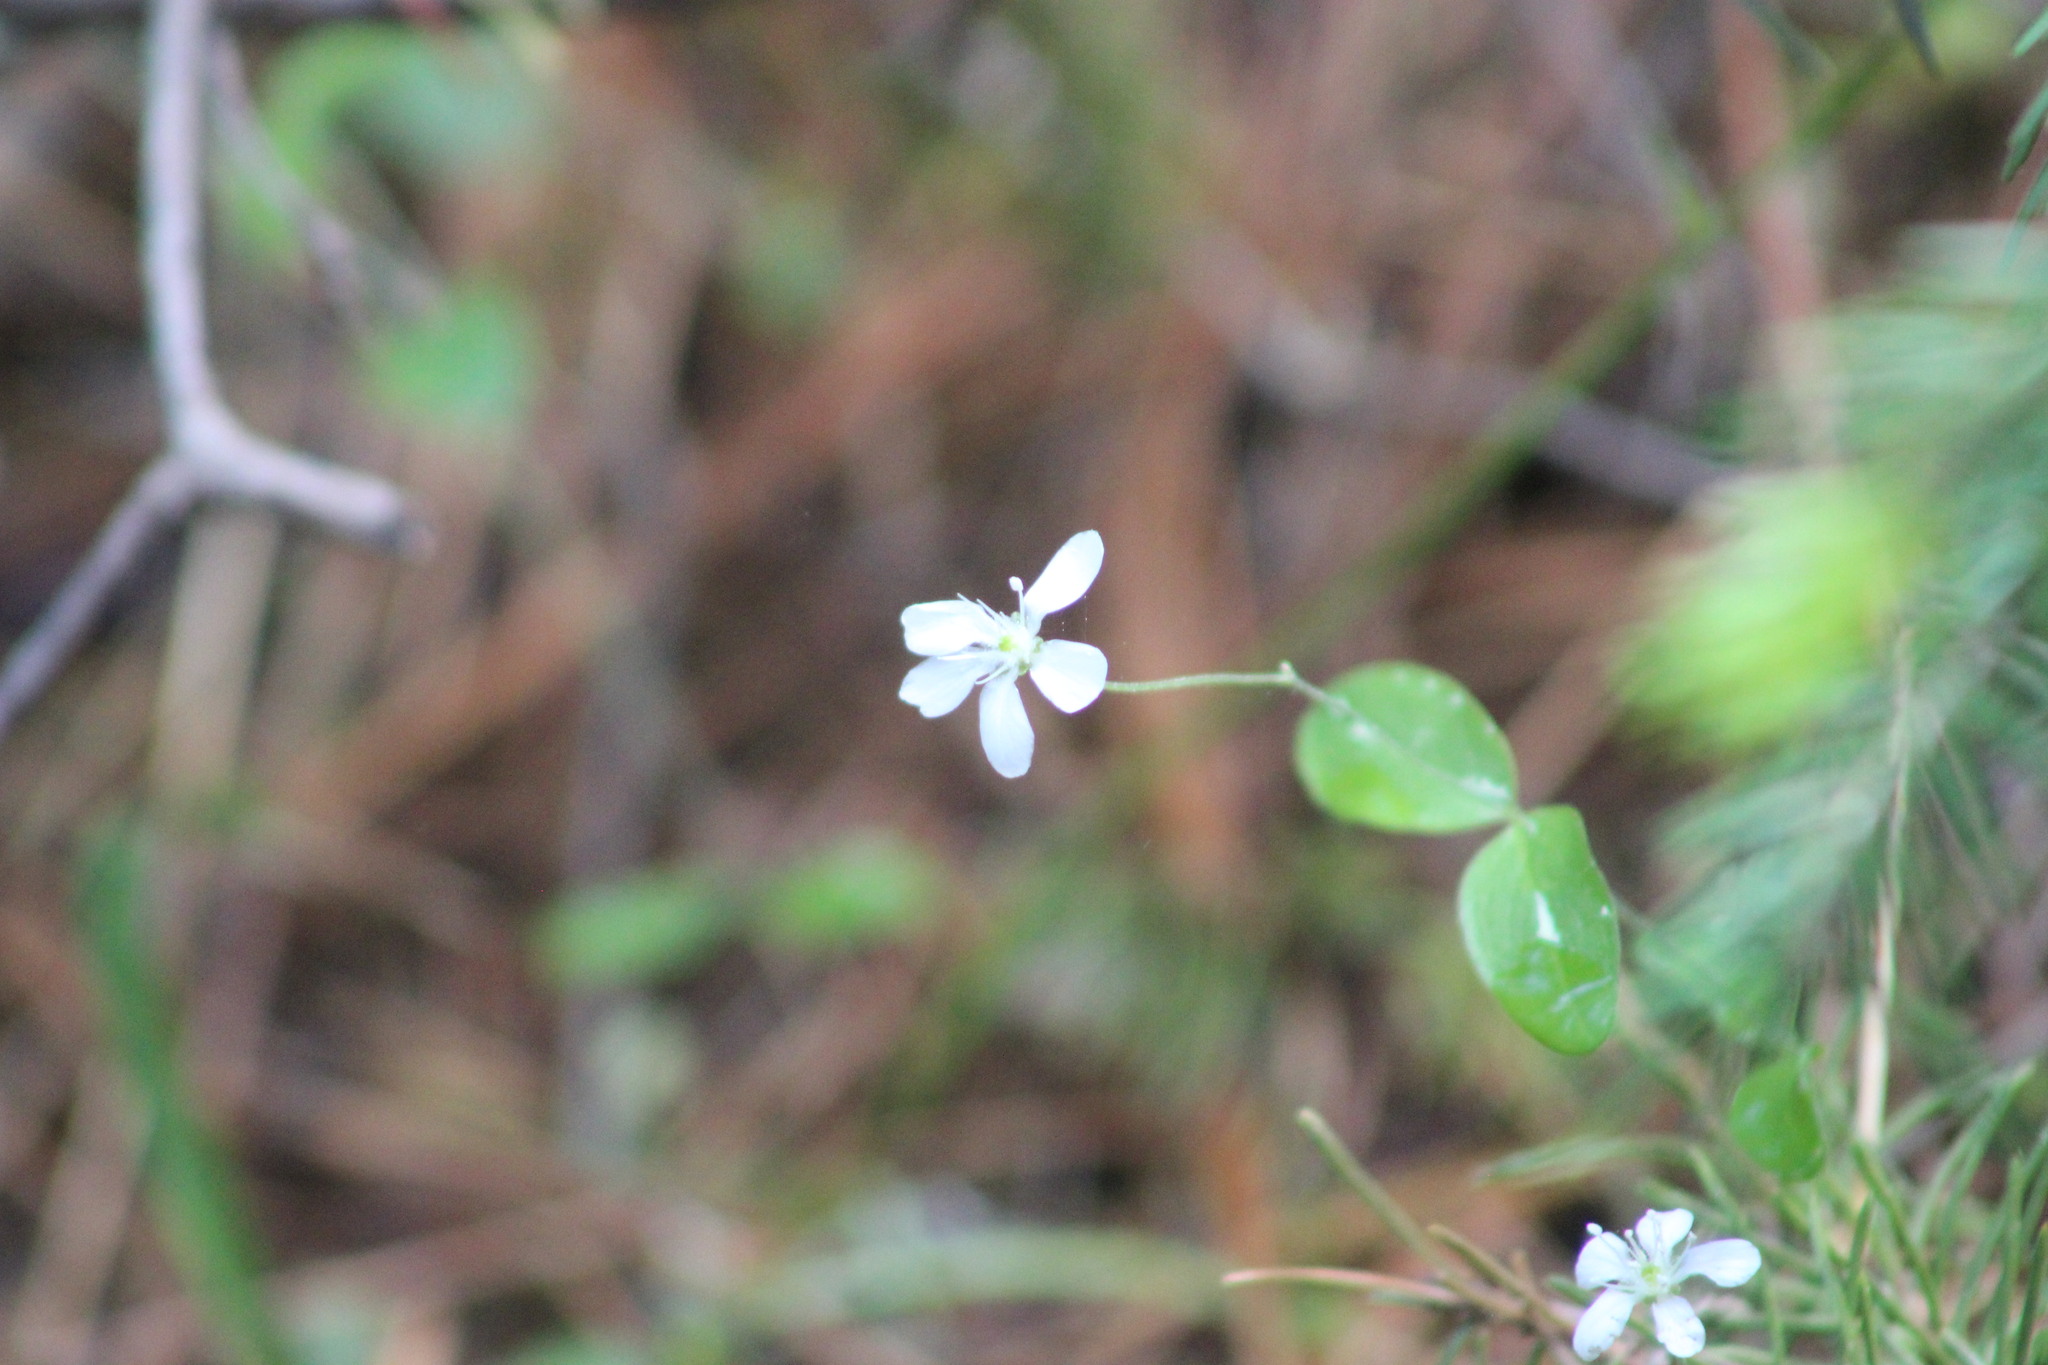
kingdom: Plantae
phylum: Tracheophyta
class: Magnoliopsida
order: Caryophyllales
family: Caryophyllaceae
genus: Moehringia
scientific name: Moehringia lateriflora
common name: Blunt-leaved sandwort
